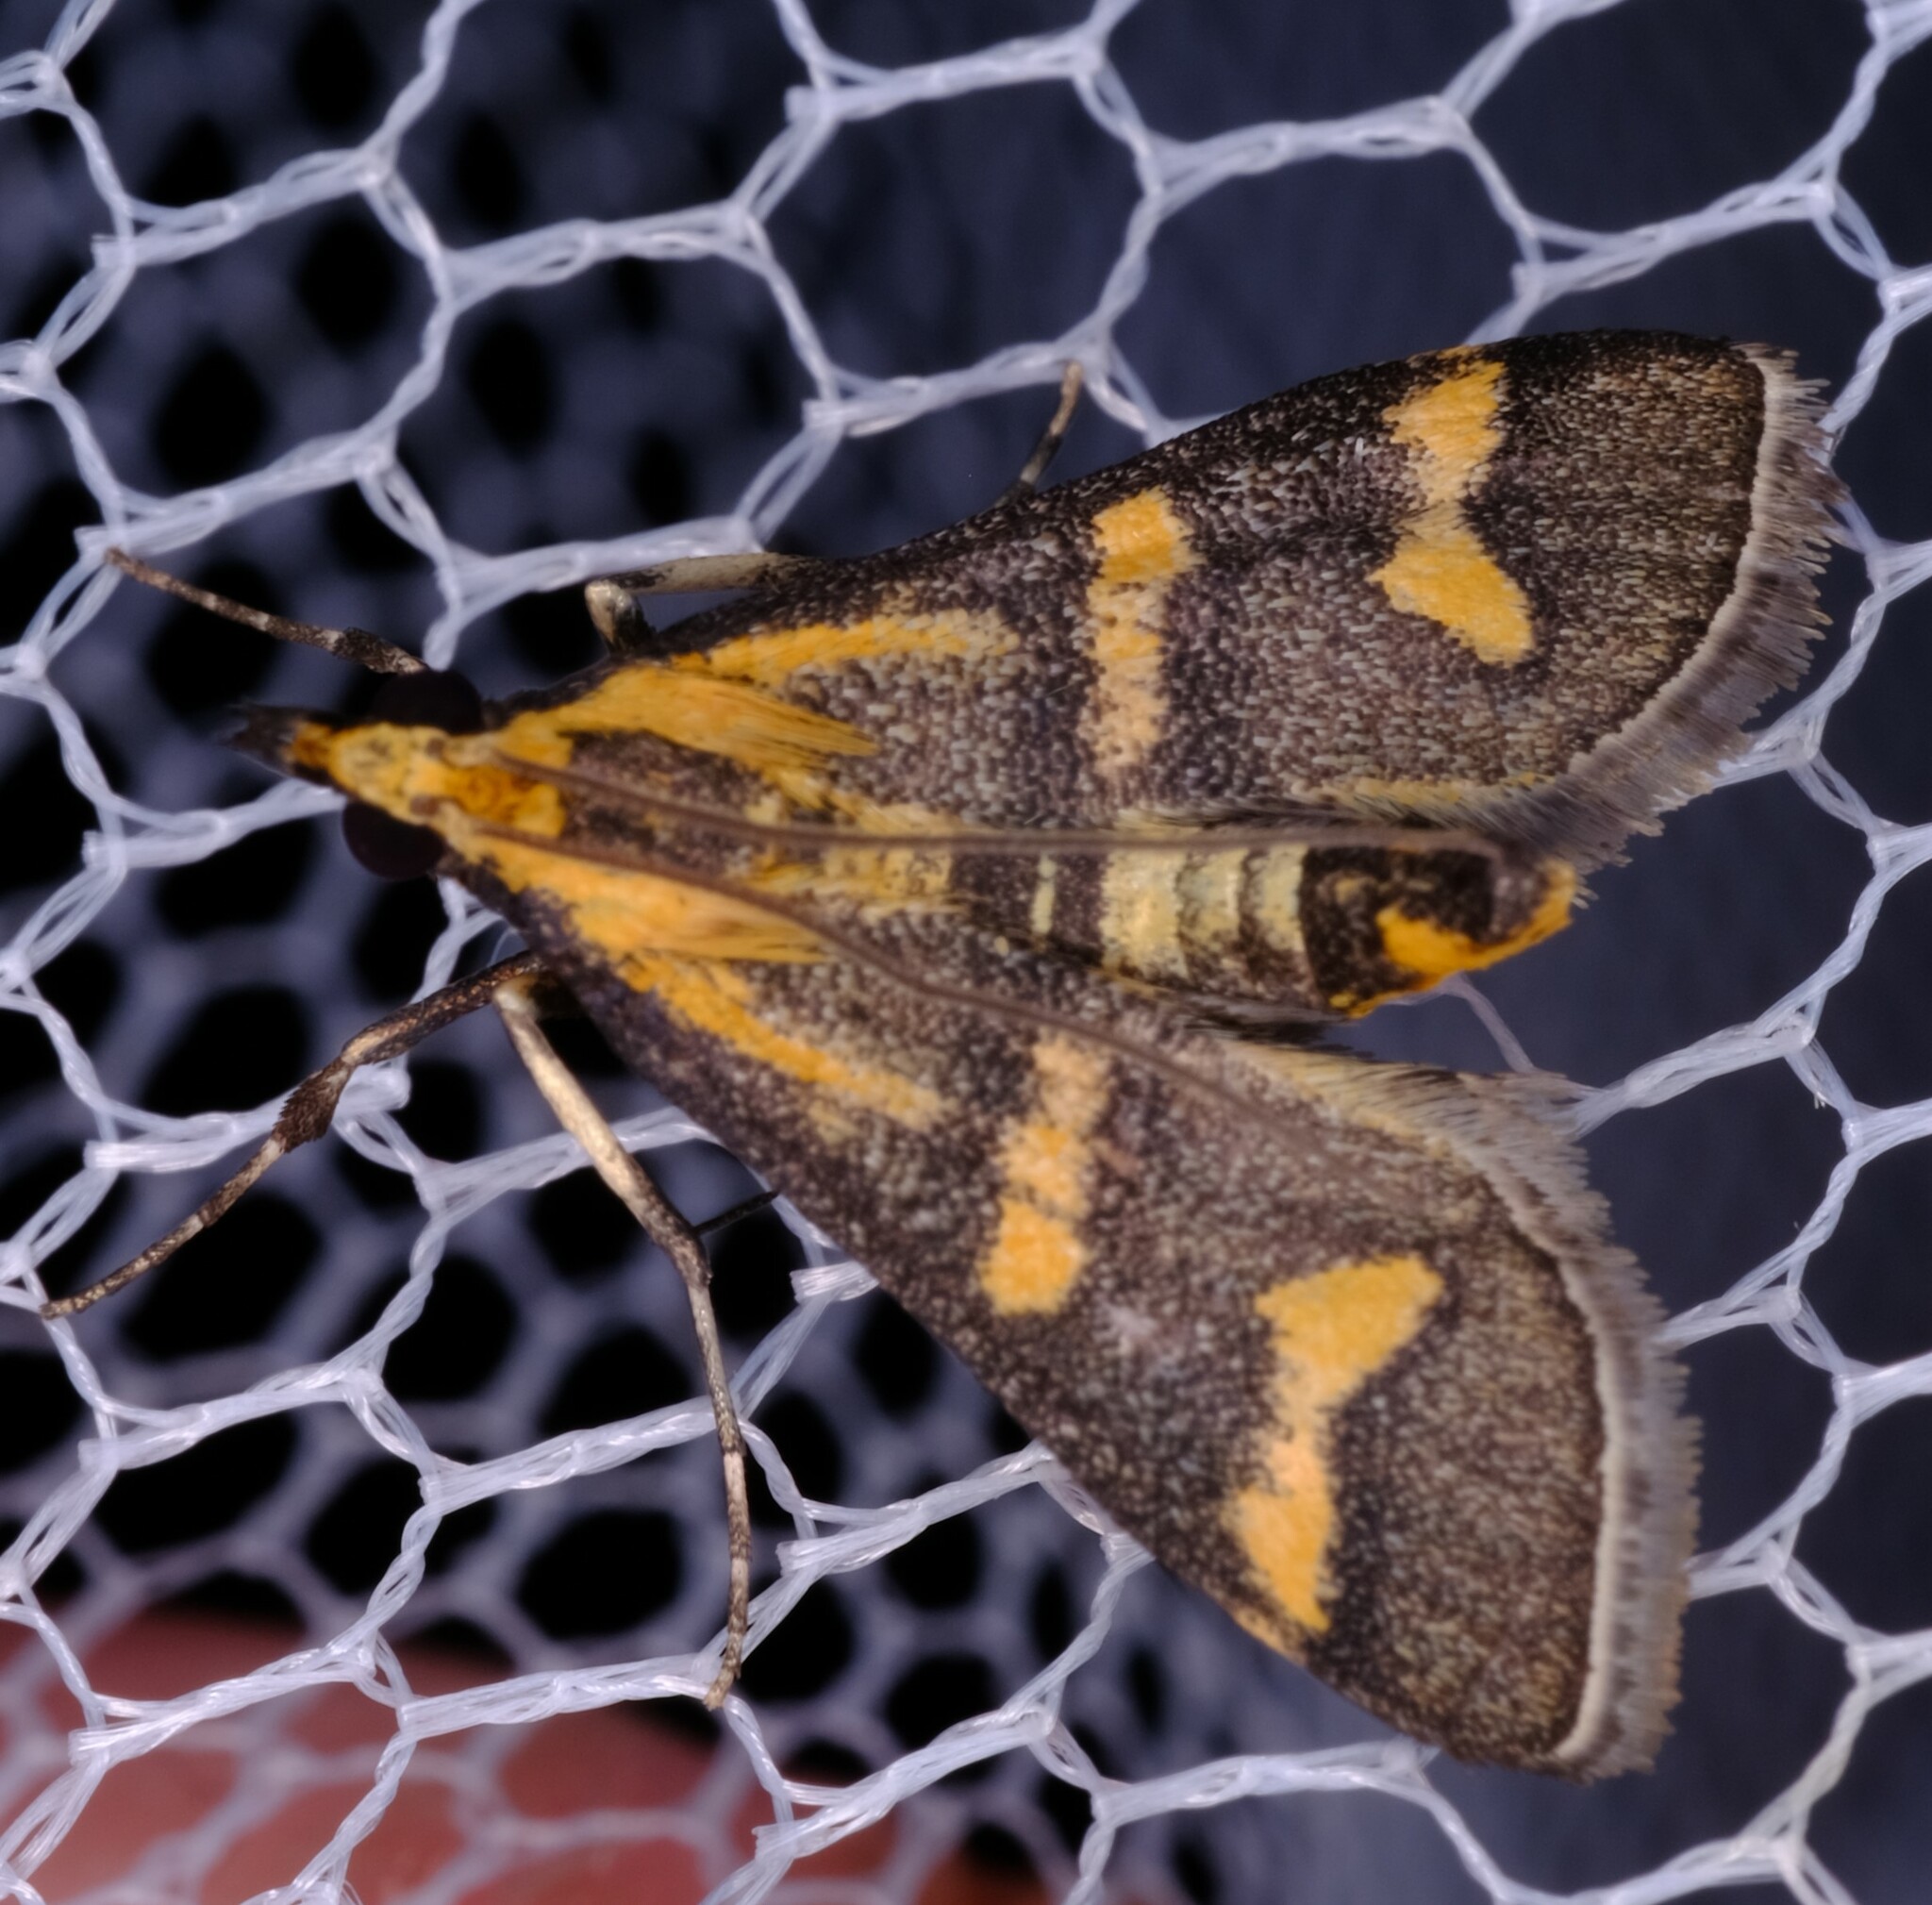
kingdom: Animalia
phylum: Arthropoda
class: Insecta
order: Lepidoptera
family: Crambidae
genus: Metallarcha
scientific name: Metallarcha diplochrysa
